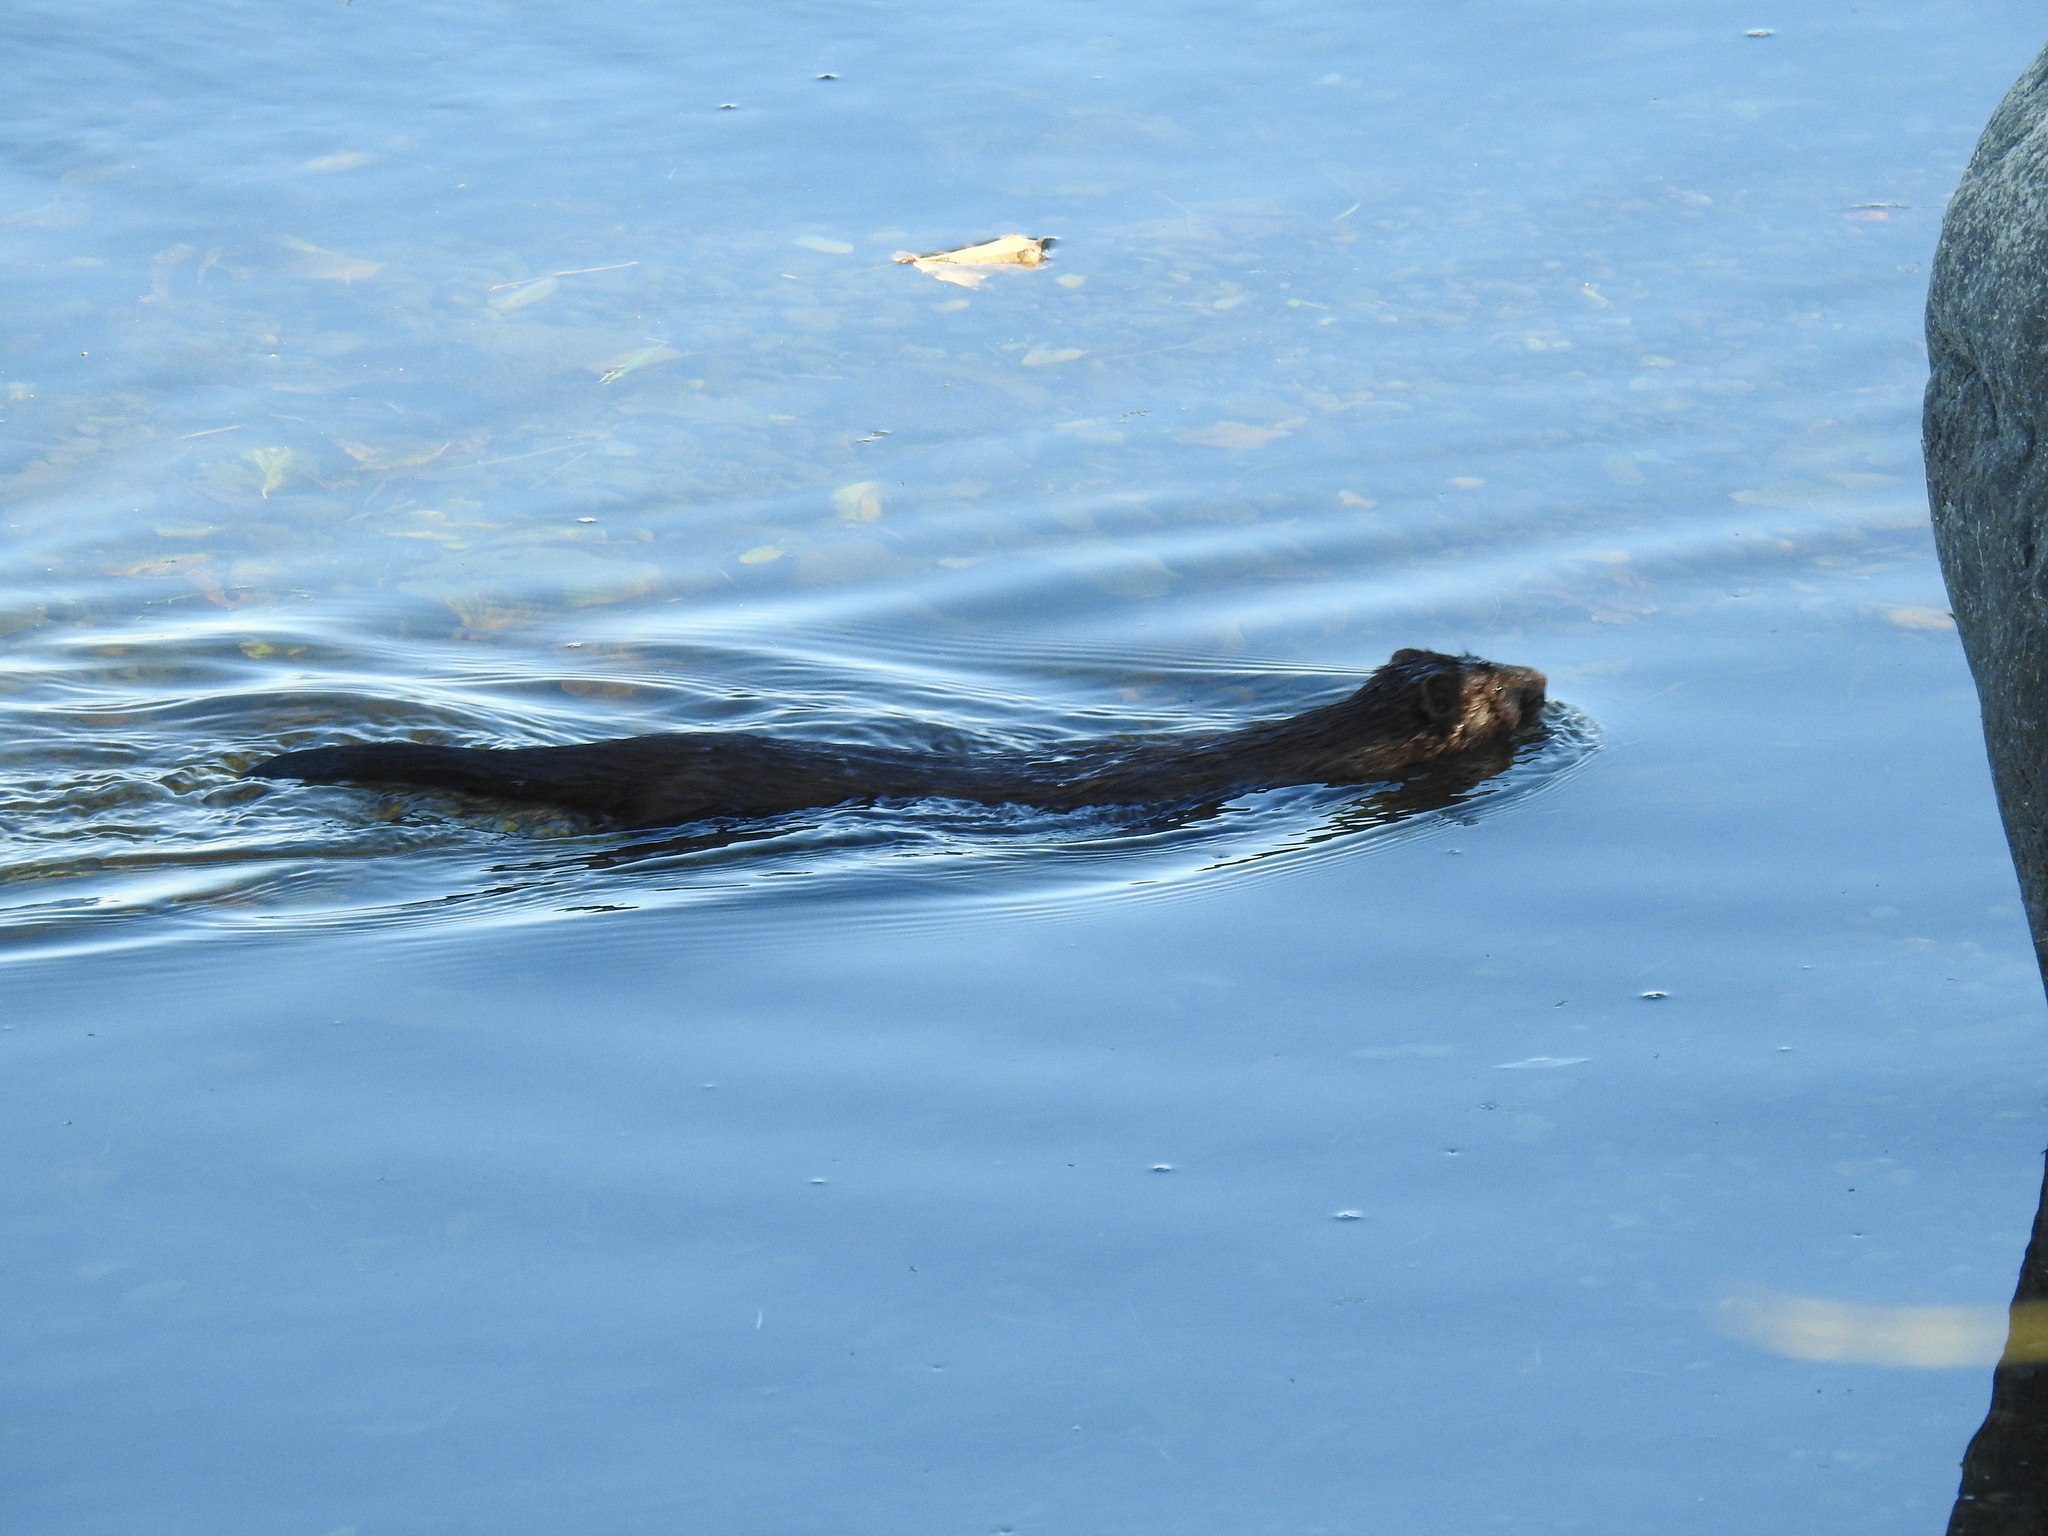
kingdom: Animalia
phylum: Chordata
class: Mammalia
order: Carnivora
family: Mustelidae
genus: Mustela
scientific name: Mustela
